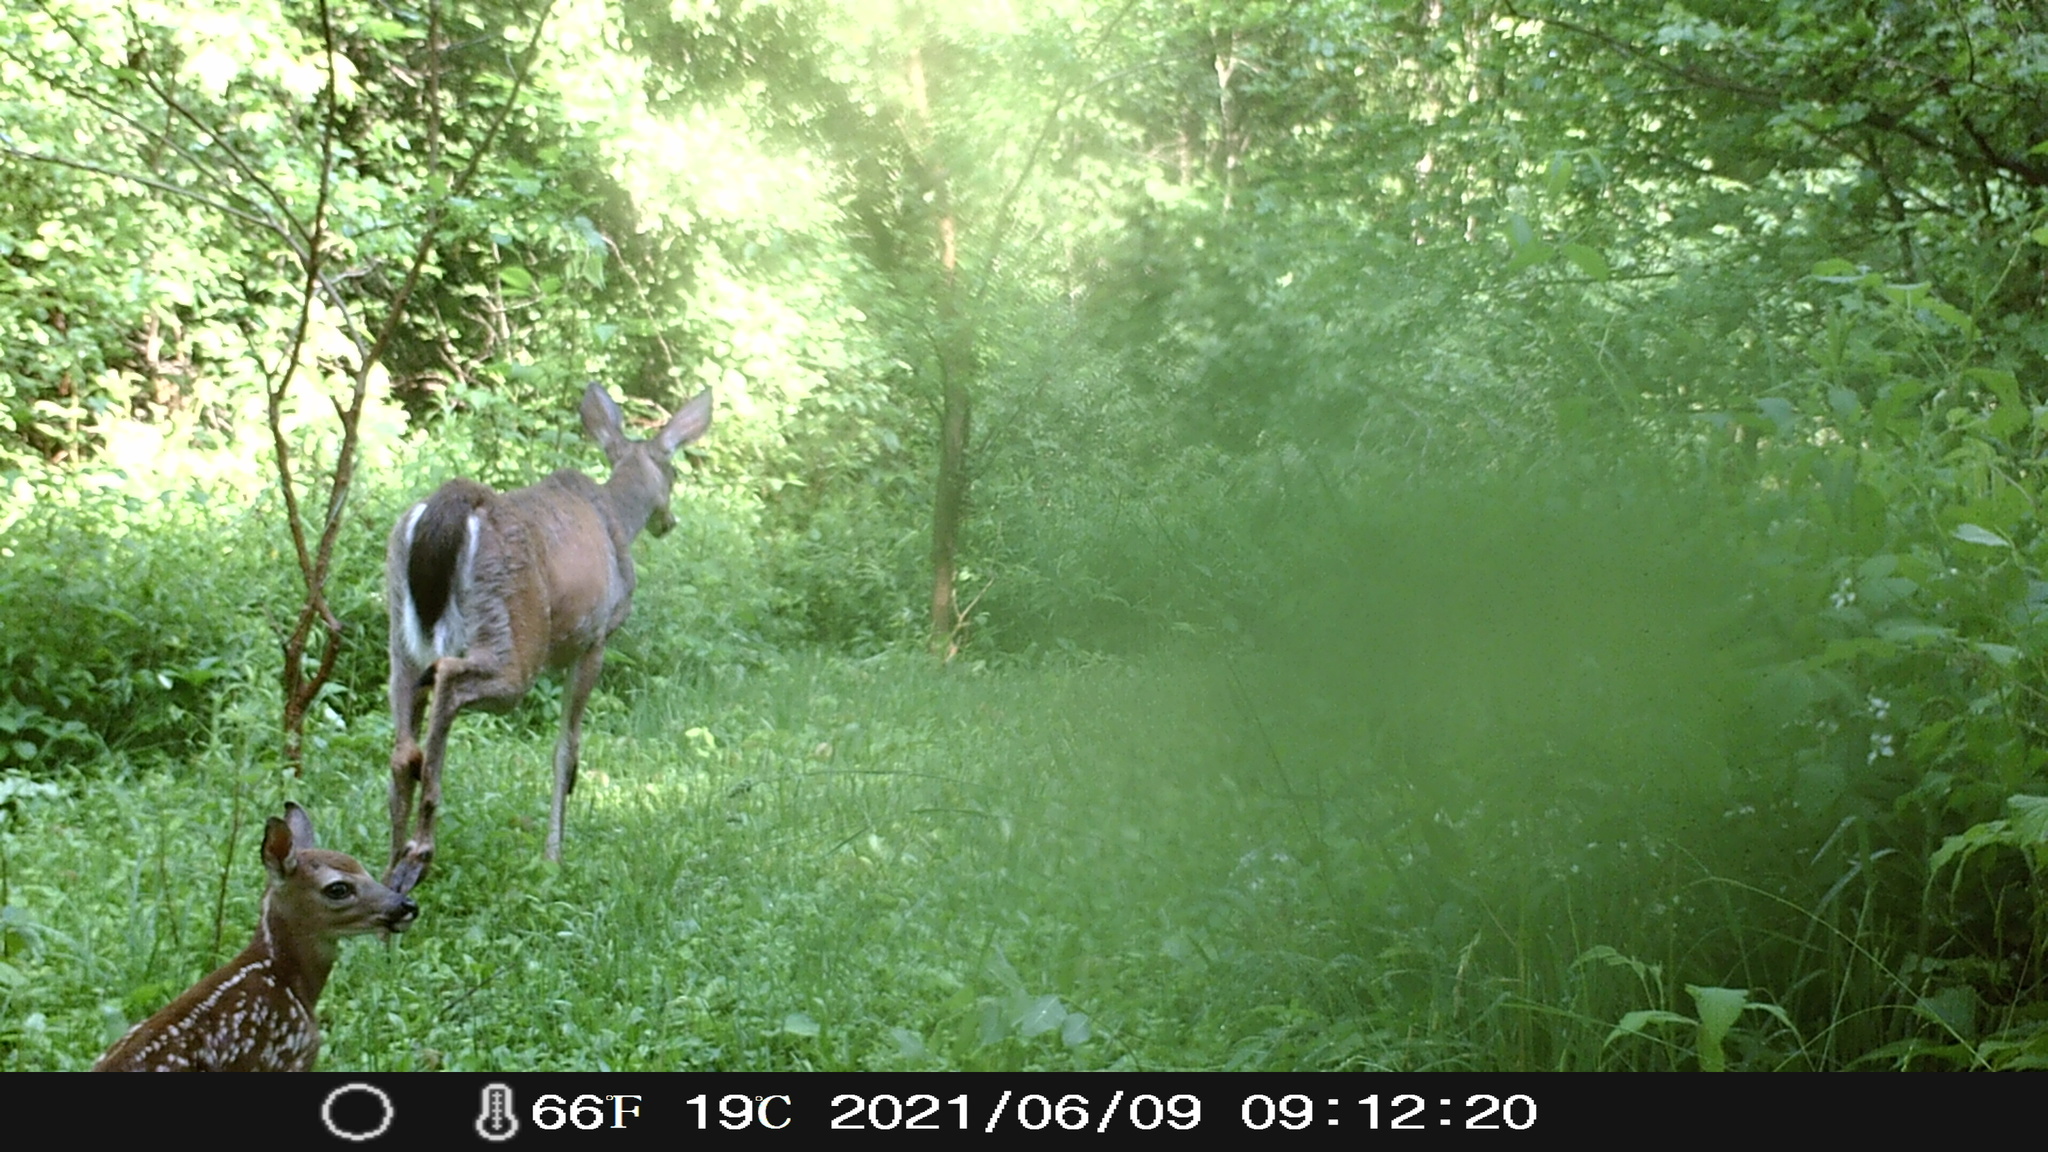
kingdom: Animalia
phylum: Chordata
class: Mammalia
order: Artiodactyla
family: Cervidae
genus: Odocoileus
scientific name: Odocoileus virginianus
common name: White-tailed deer
